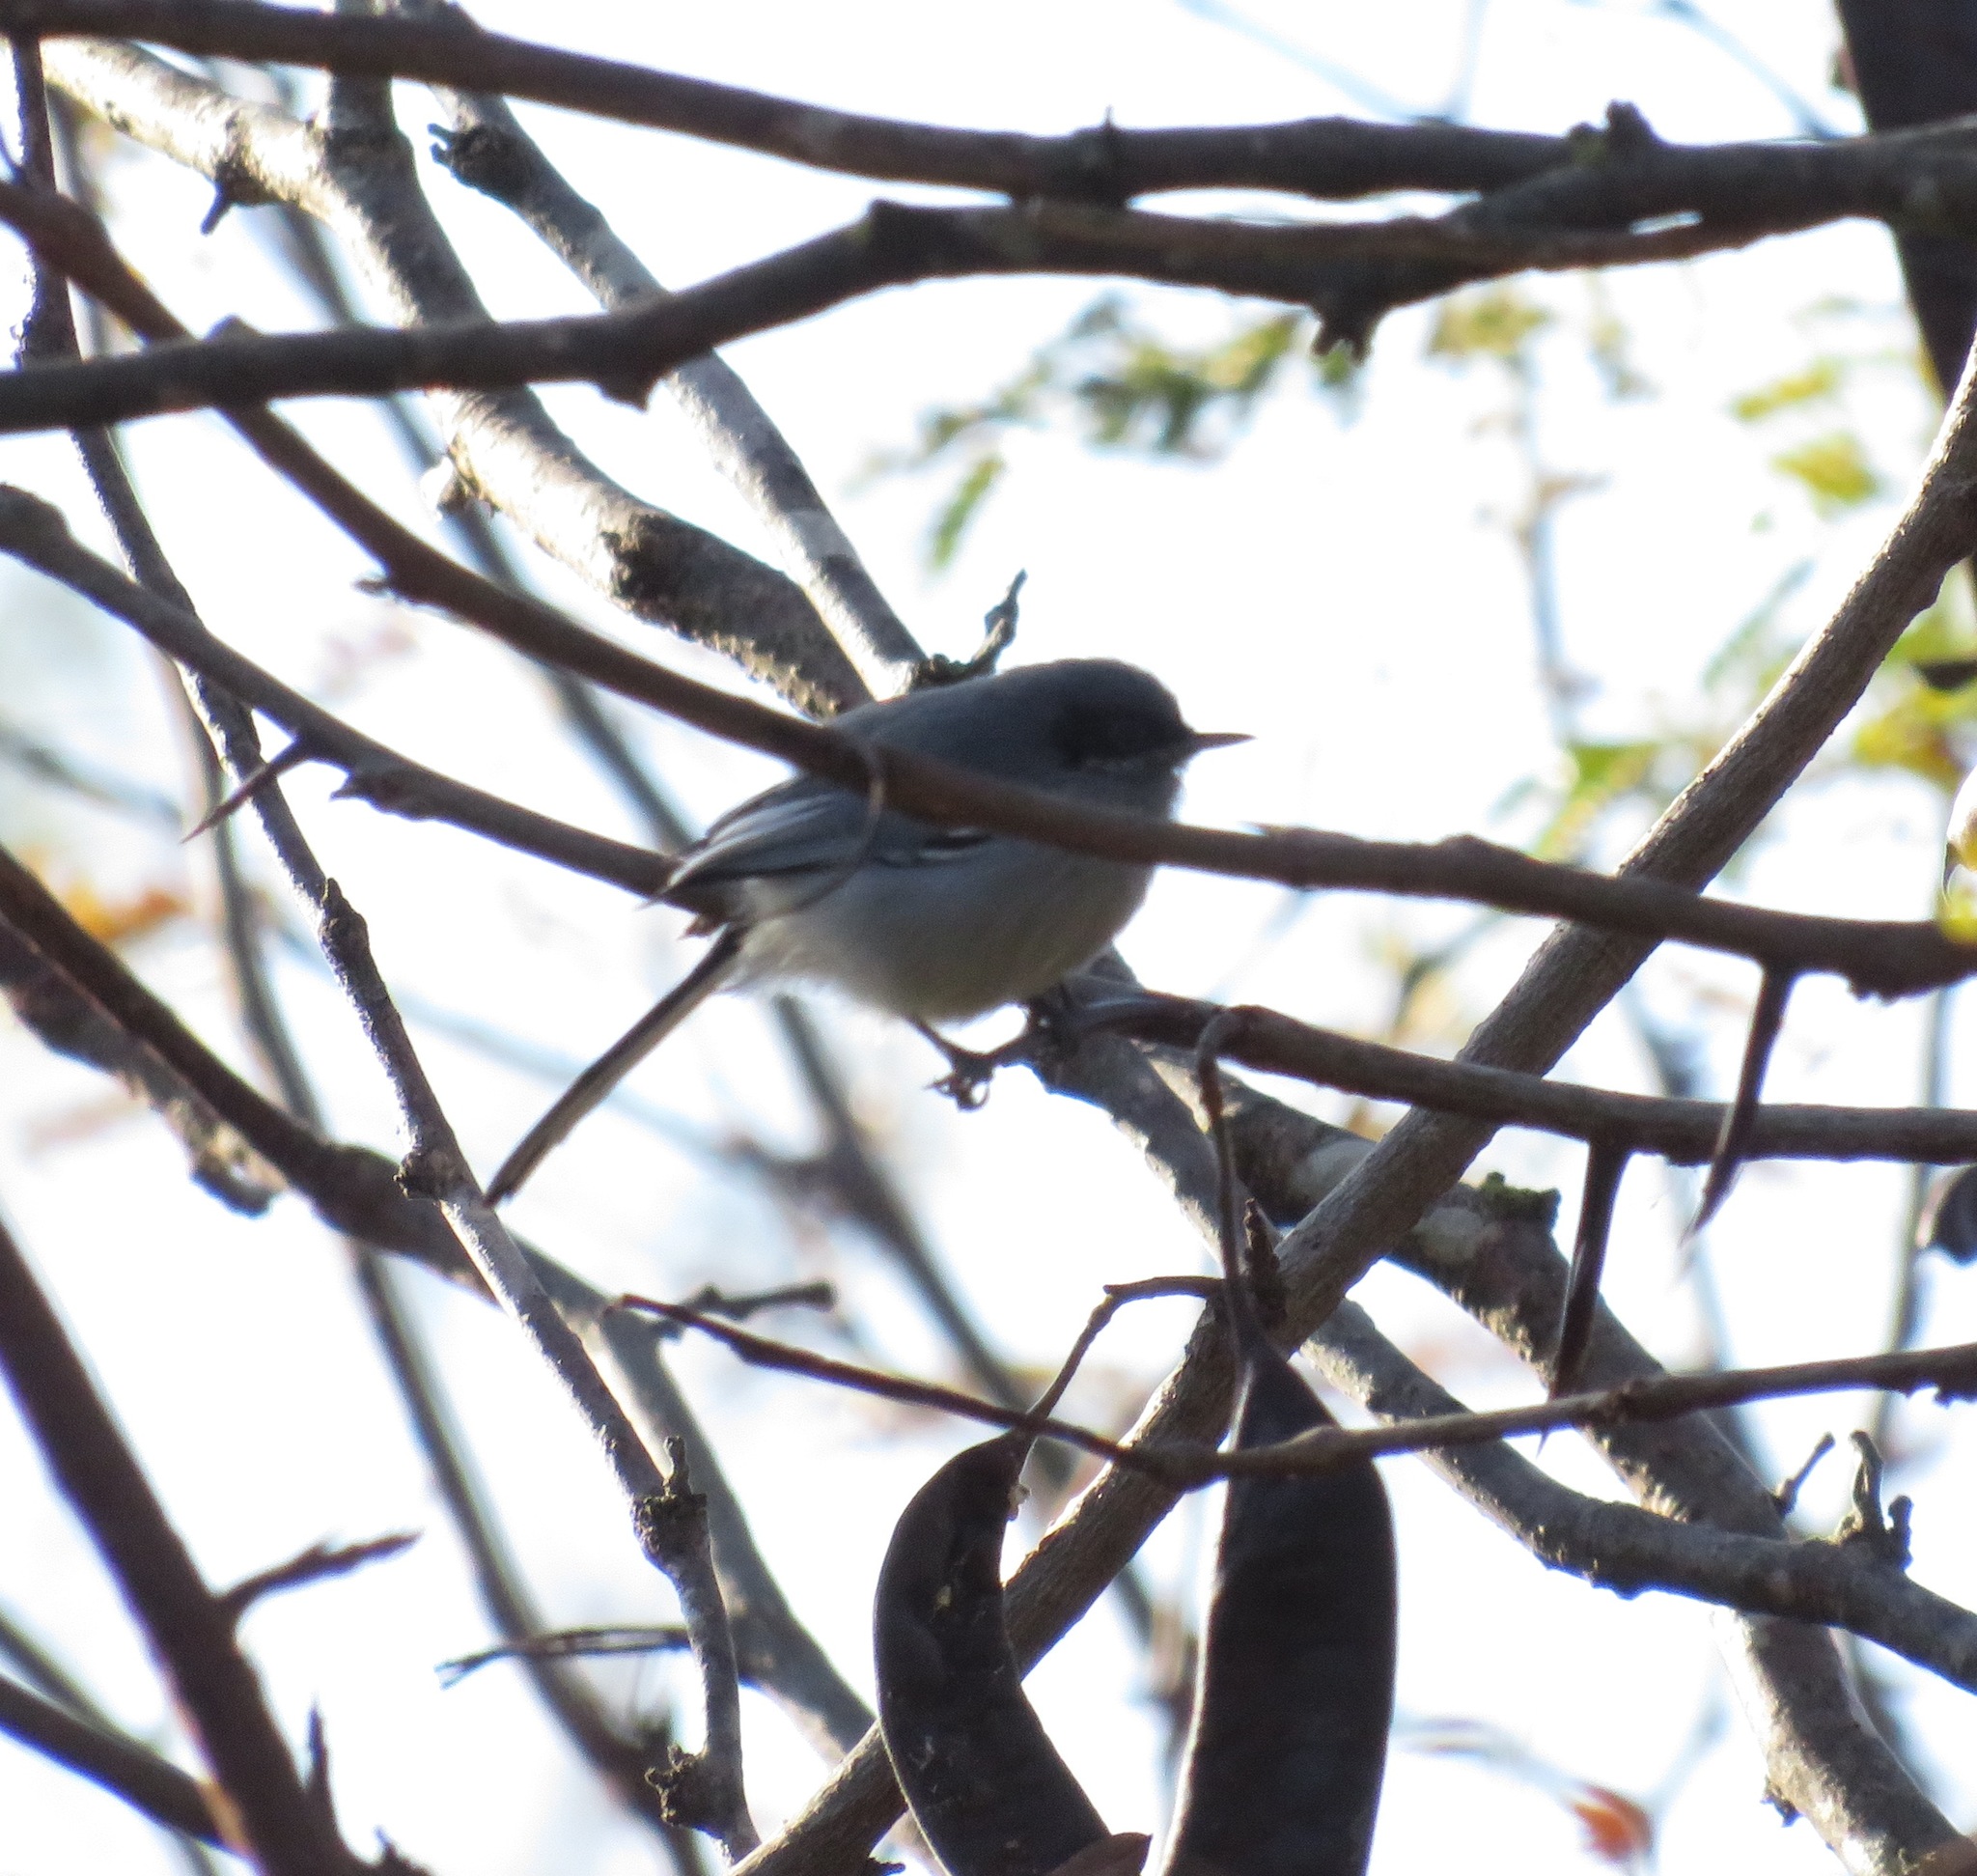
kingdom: Animalia
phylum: Chordata
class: Aves
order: Passeriformes
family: Polioptilidae
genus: Polioptila
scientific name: Polioptila dumicola
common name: Masked gnatcatcher
